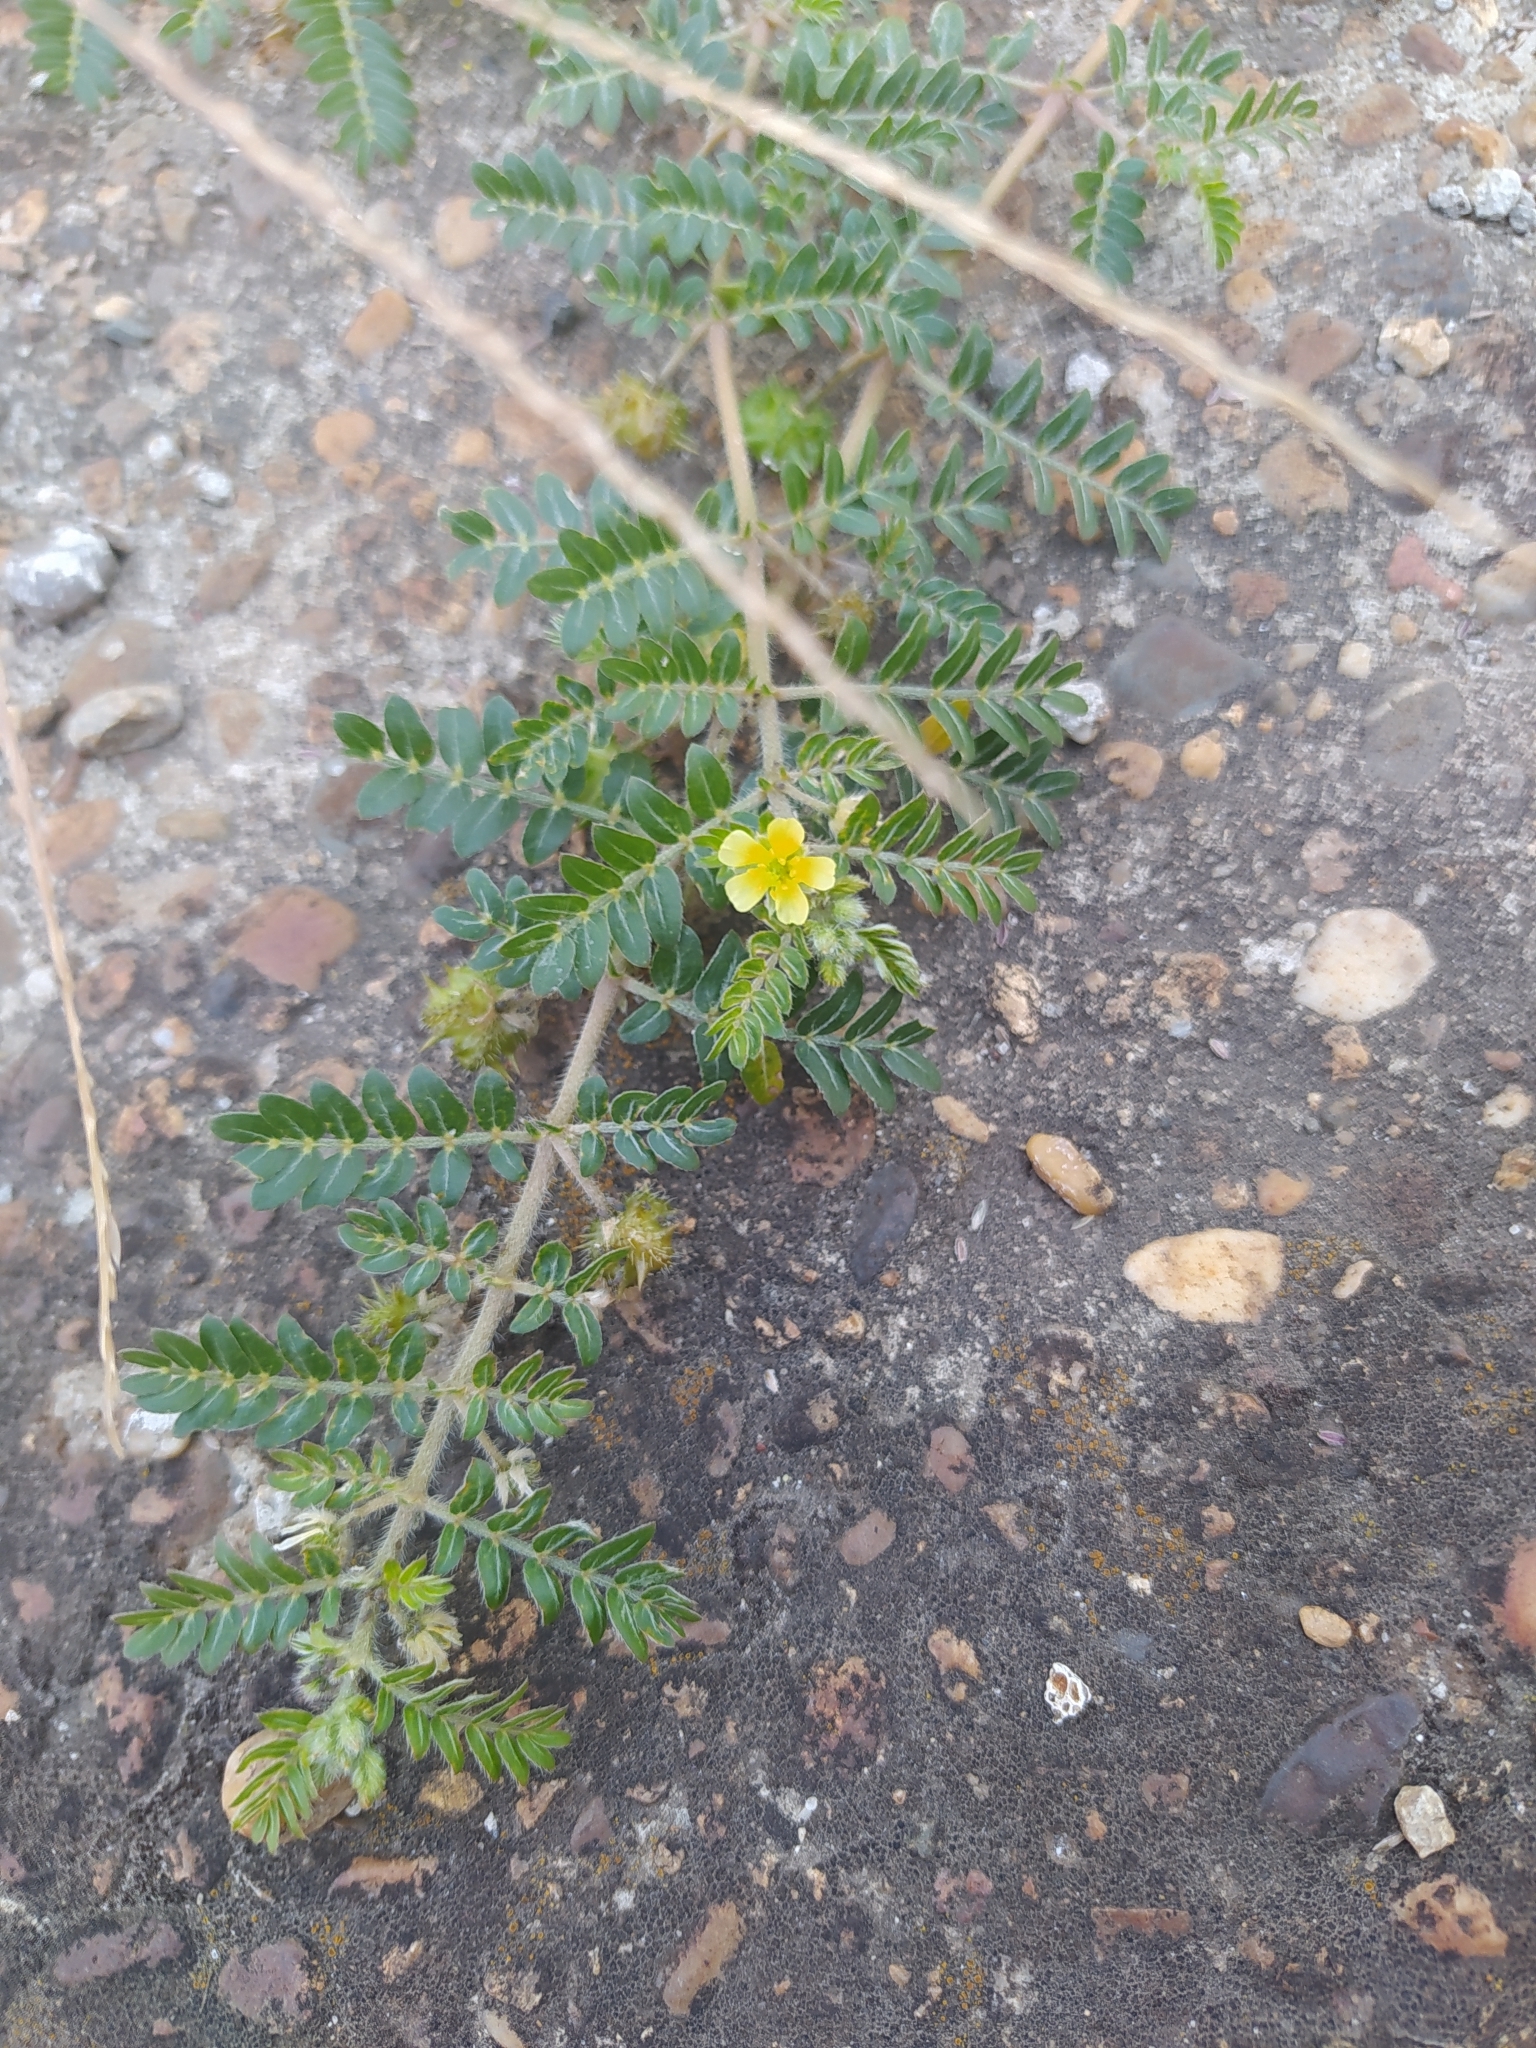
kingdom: Plantae
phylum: Tracheophyta
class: Magnoliopsida
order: Zygophyllales
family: Zygophyllaceae
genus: Tribulus
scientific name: Tribulus terrestris
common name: Puncturevine
